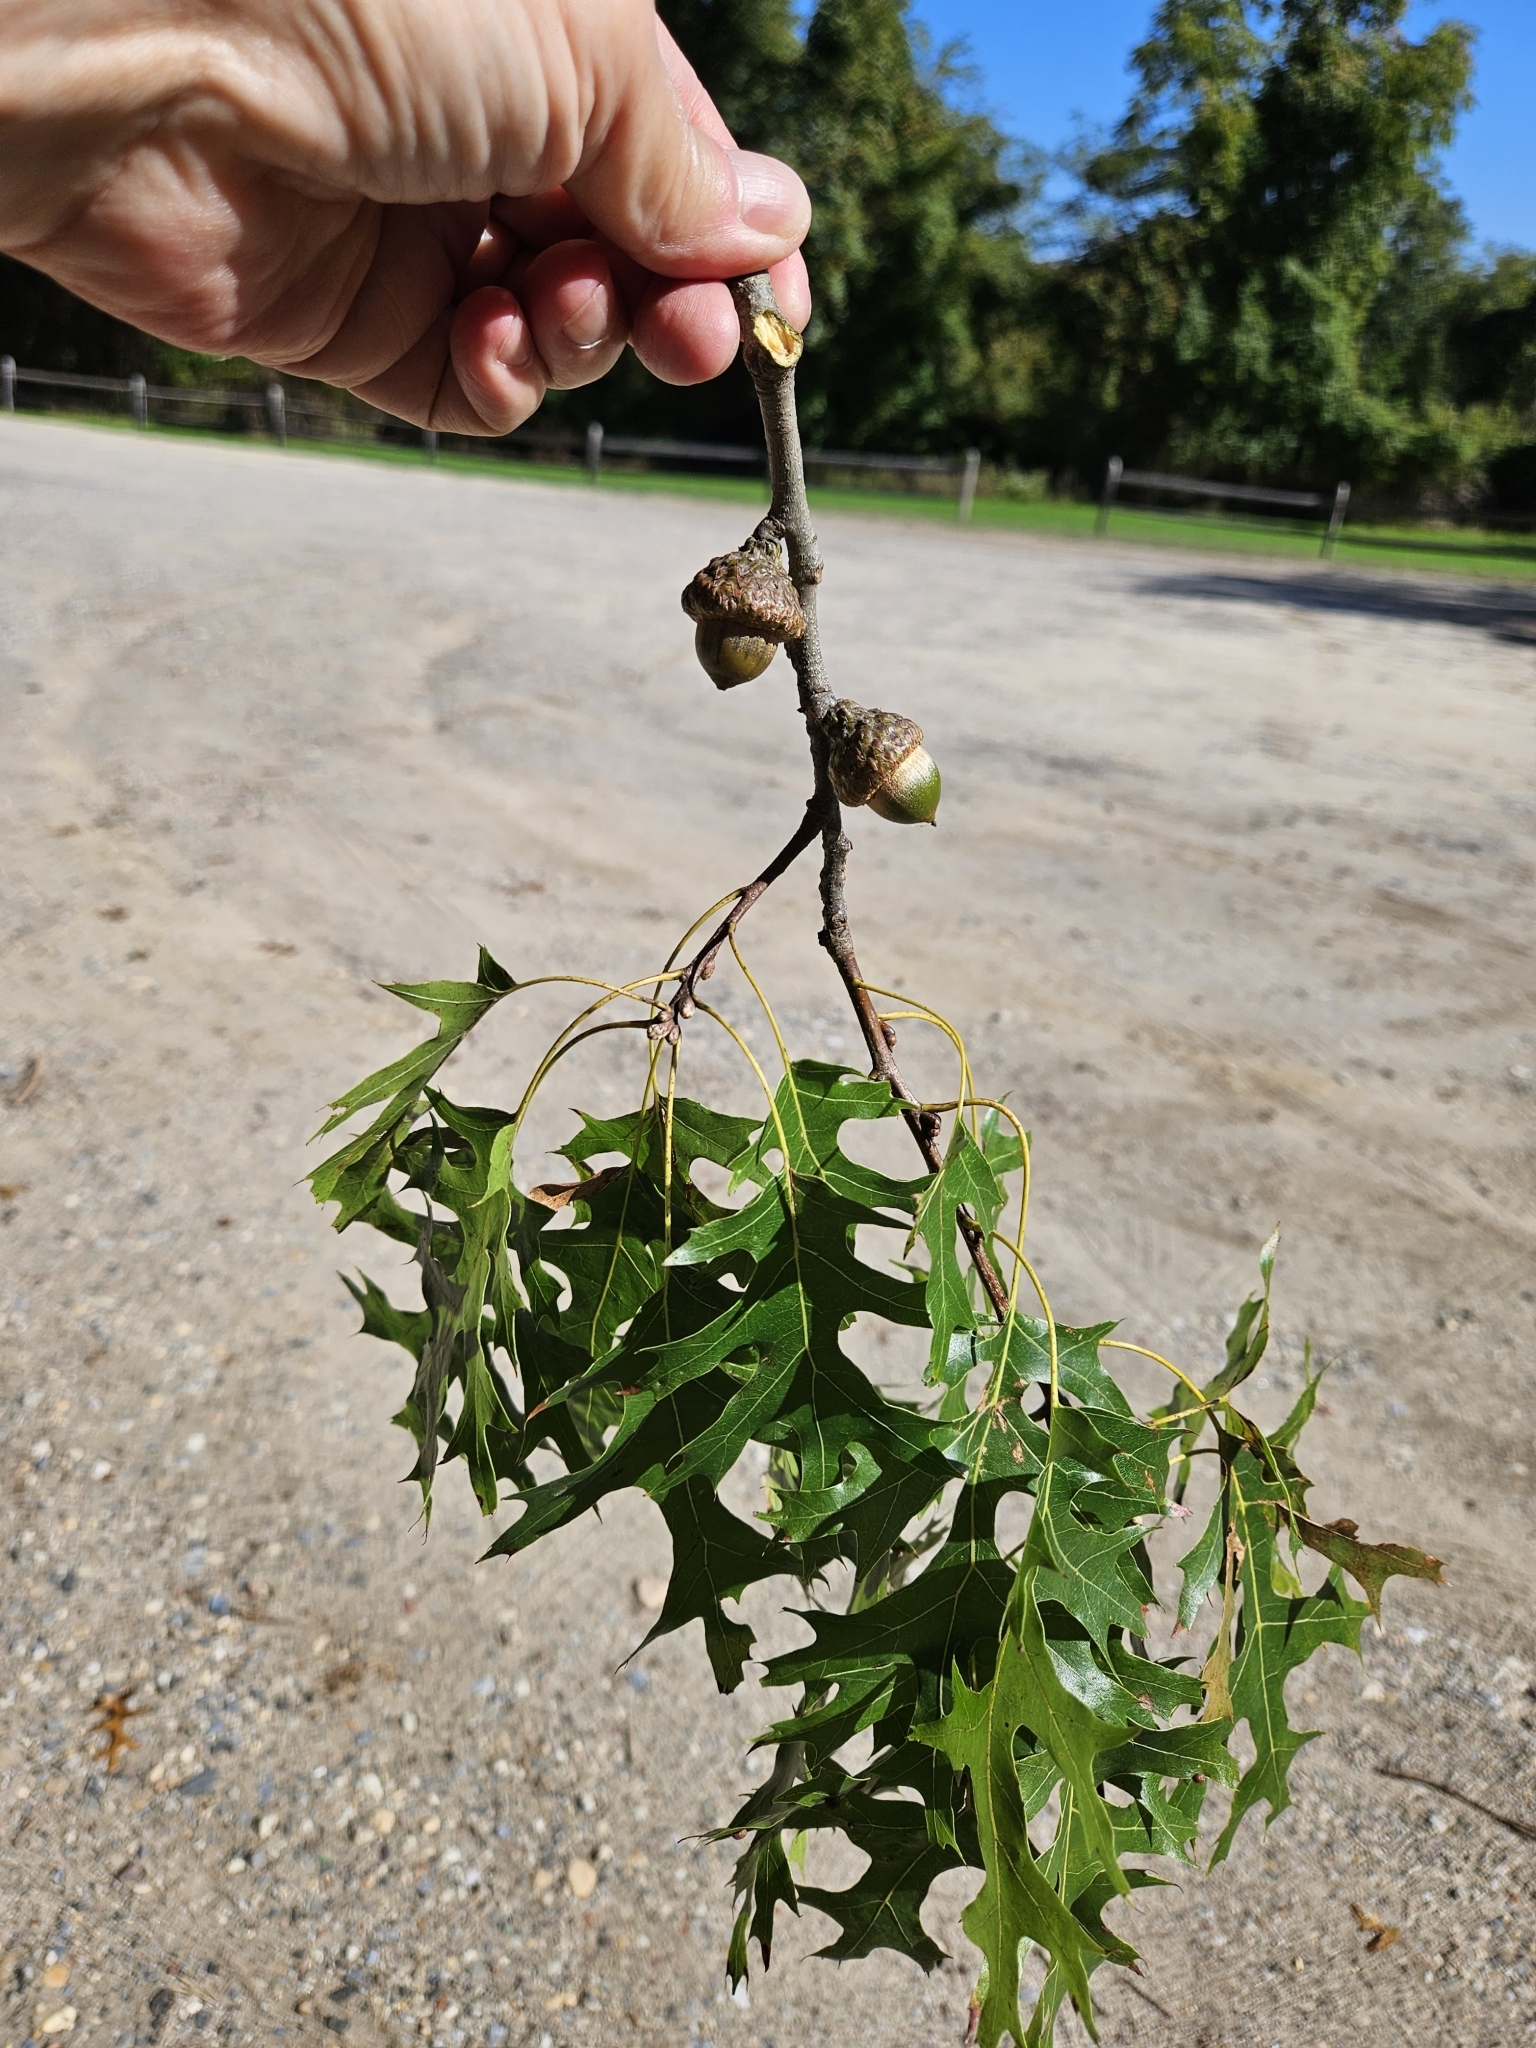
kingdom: Plantae
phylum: Tracheophyta
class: Magnoliopsida
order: Fagales
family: Fagaceae
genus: Quercus
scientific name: Quercus coccinea
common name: Scarlet oak
